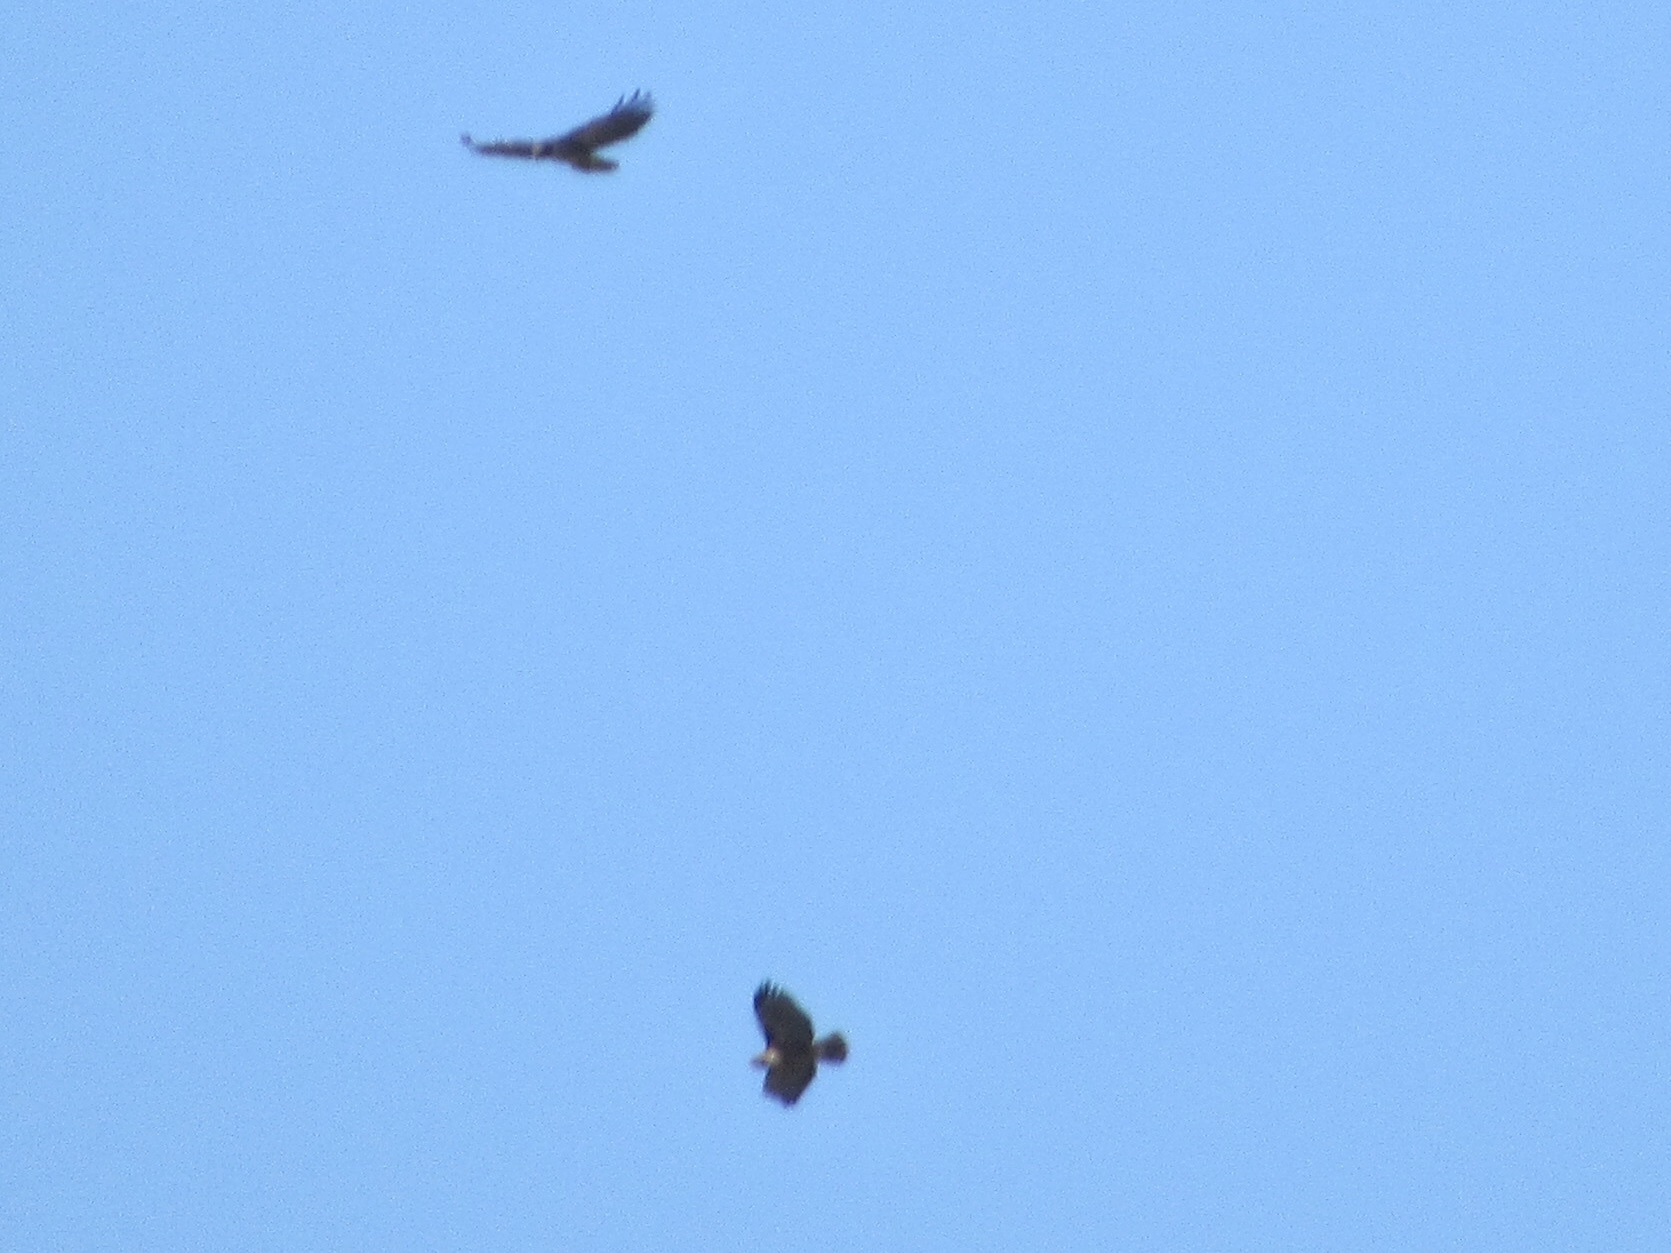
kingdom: Animalia
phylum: Chordata
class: Aves
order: Accipitriformes
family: Accipitridae
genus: Buteo
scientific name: Buteo jamaicensis
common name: Red-tailed hawk
